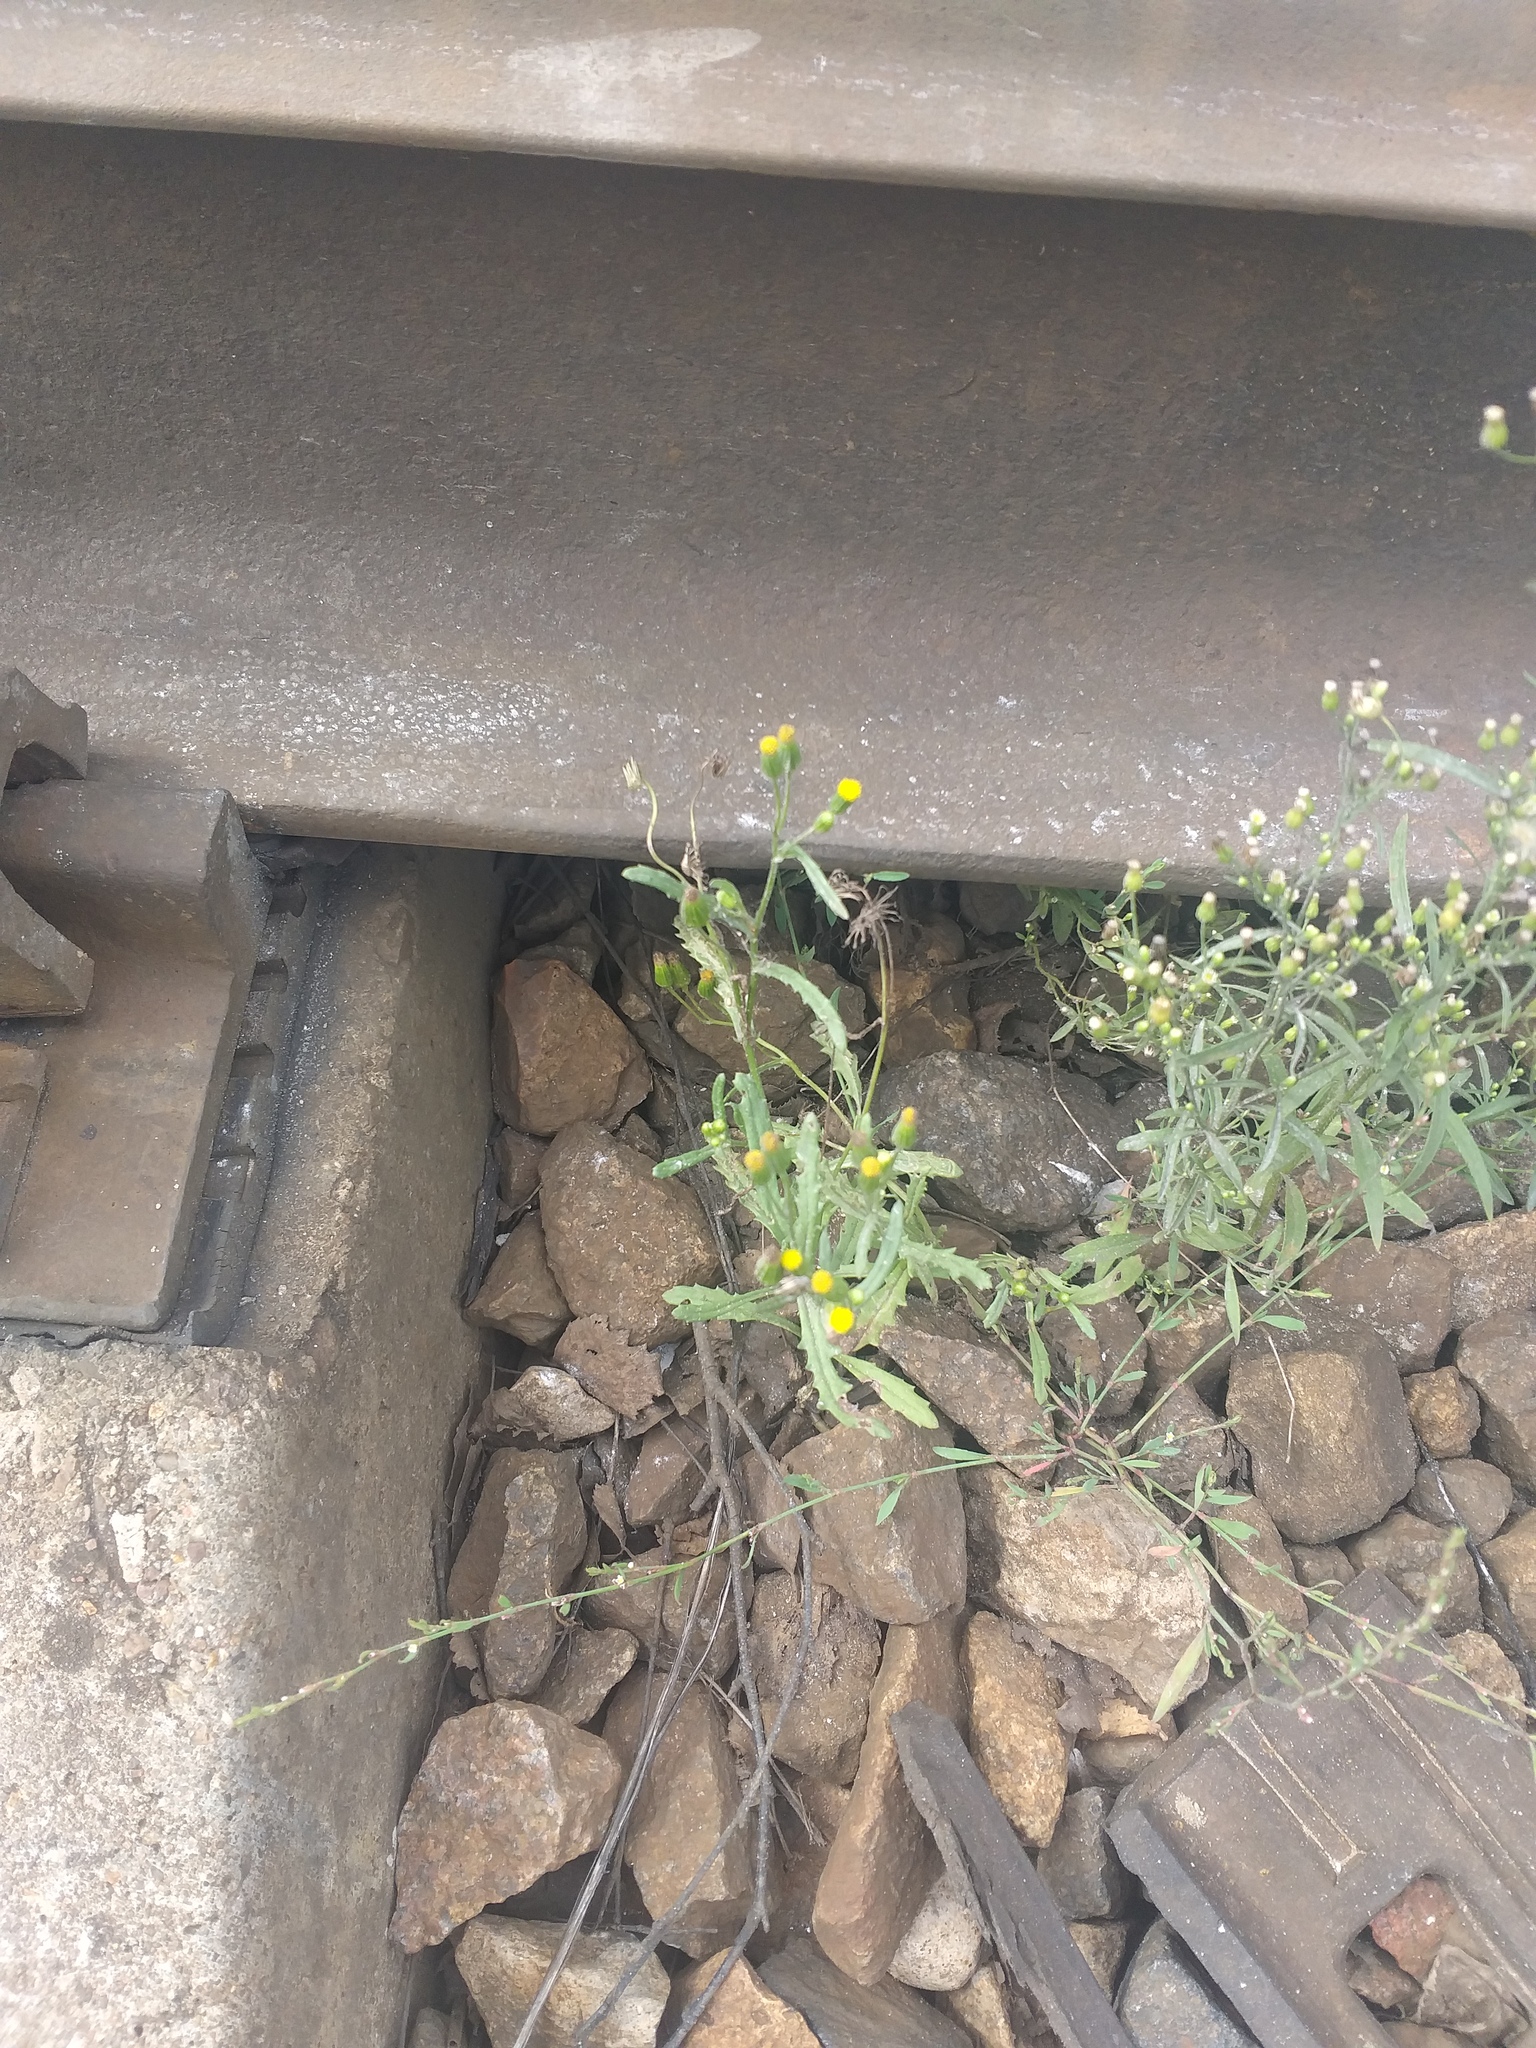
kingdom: Plantae
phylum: Tracheophyta
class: Magnoliopsida
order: Asterales
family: Asteraceae
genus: Senecio
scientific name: Senecio dubitabilis
